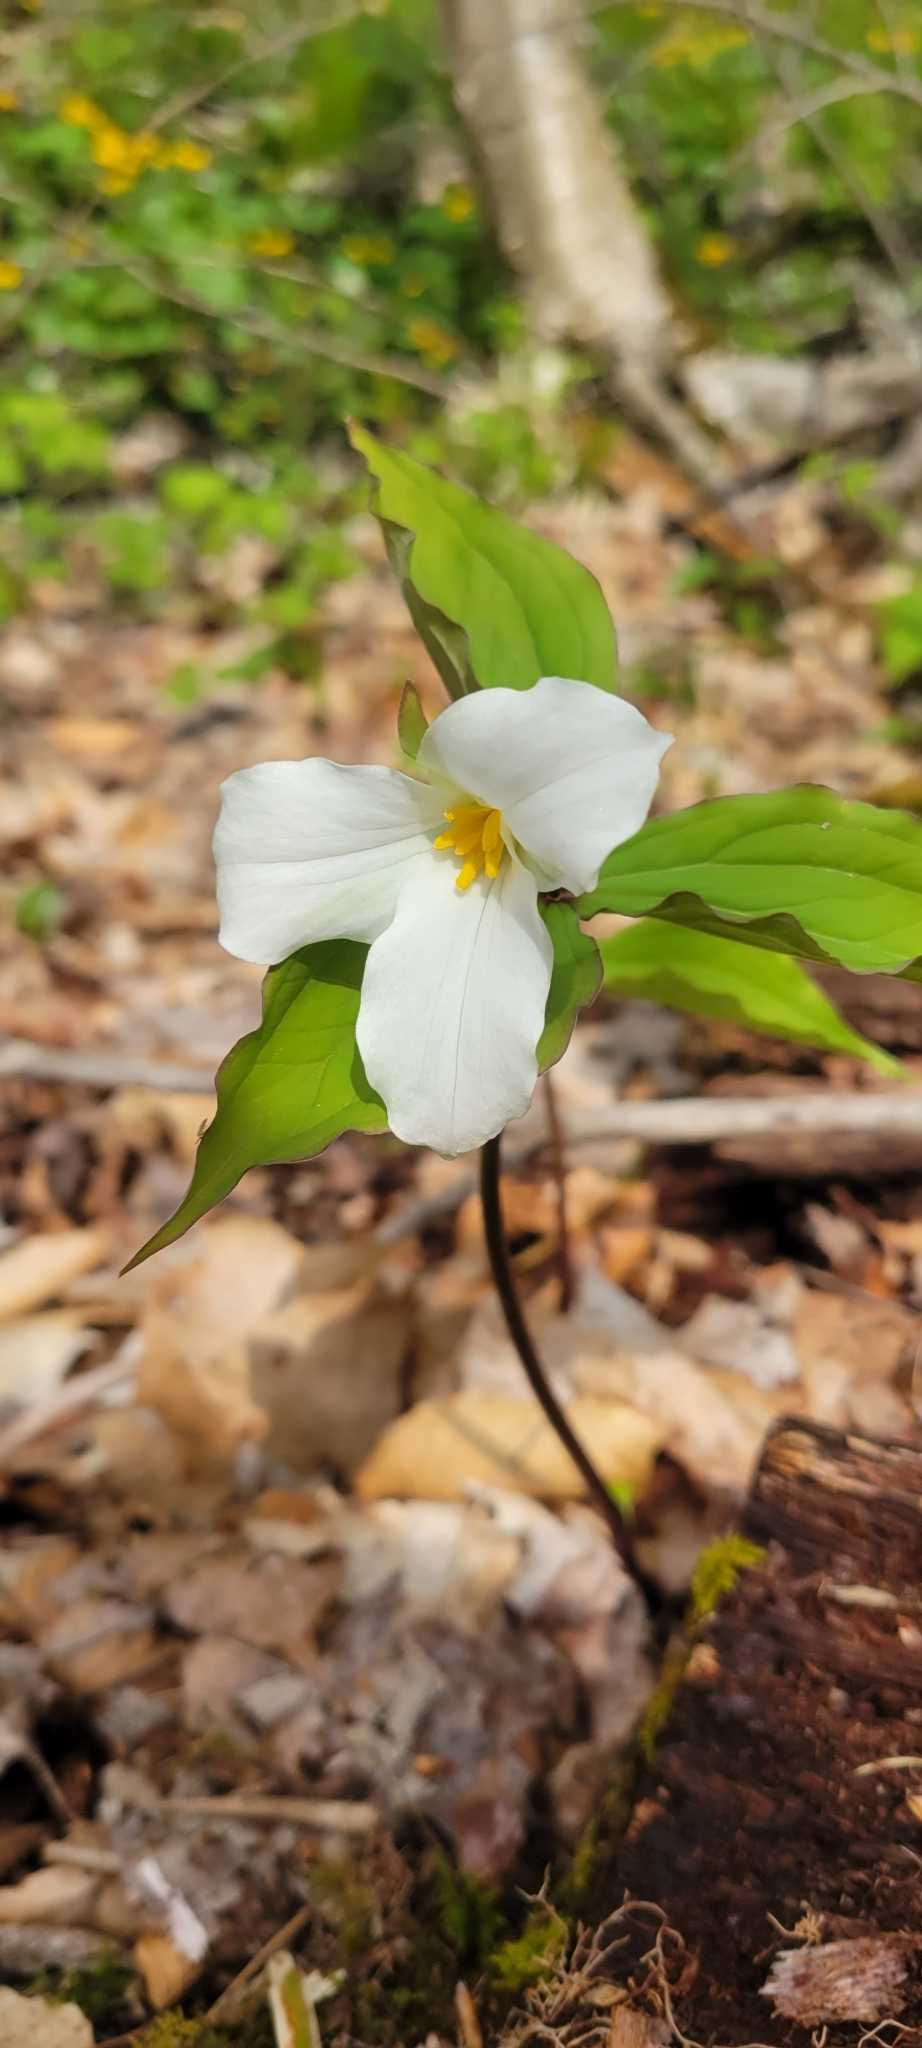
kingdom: Plantae
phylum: Tracheophyta
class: Liliopsida
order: Liliales
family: Melanthiaceae
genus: Trillium
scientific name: Trillium grandiflorum
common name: Great white trillium
